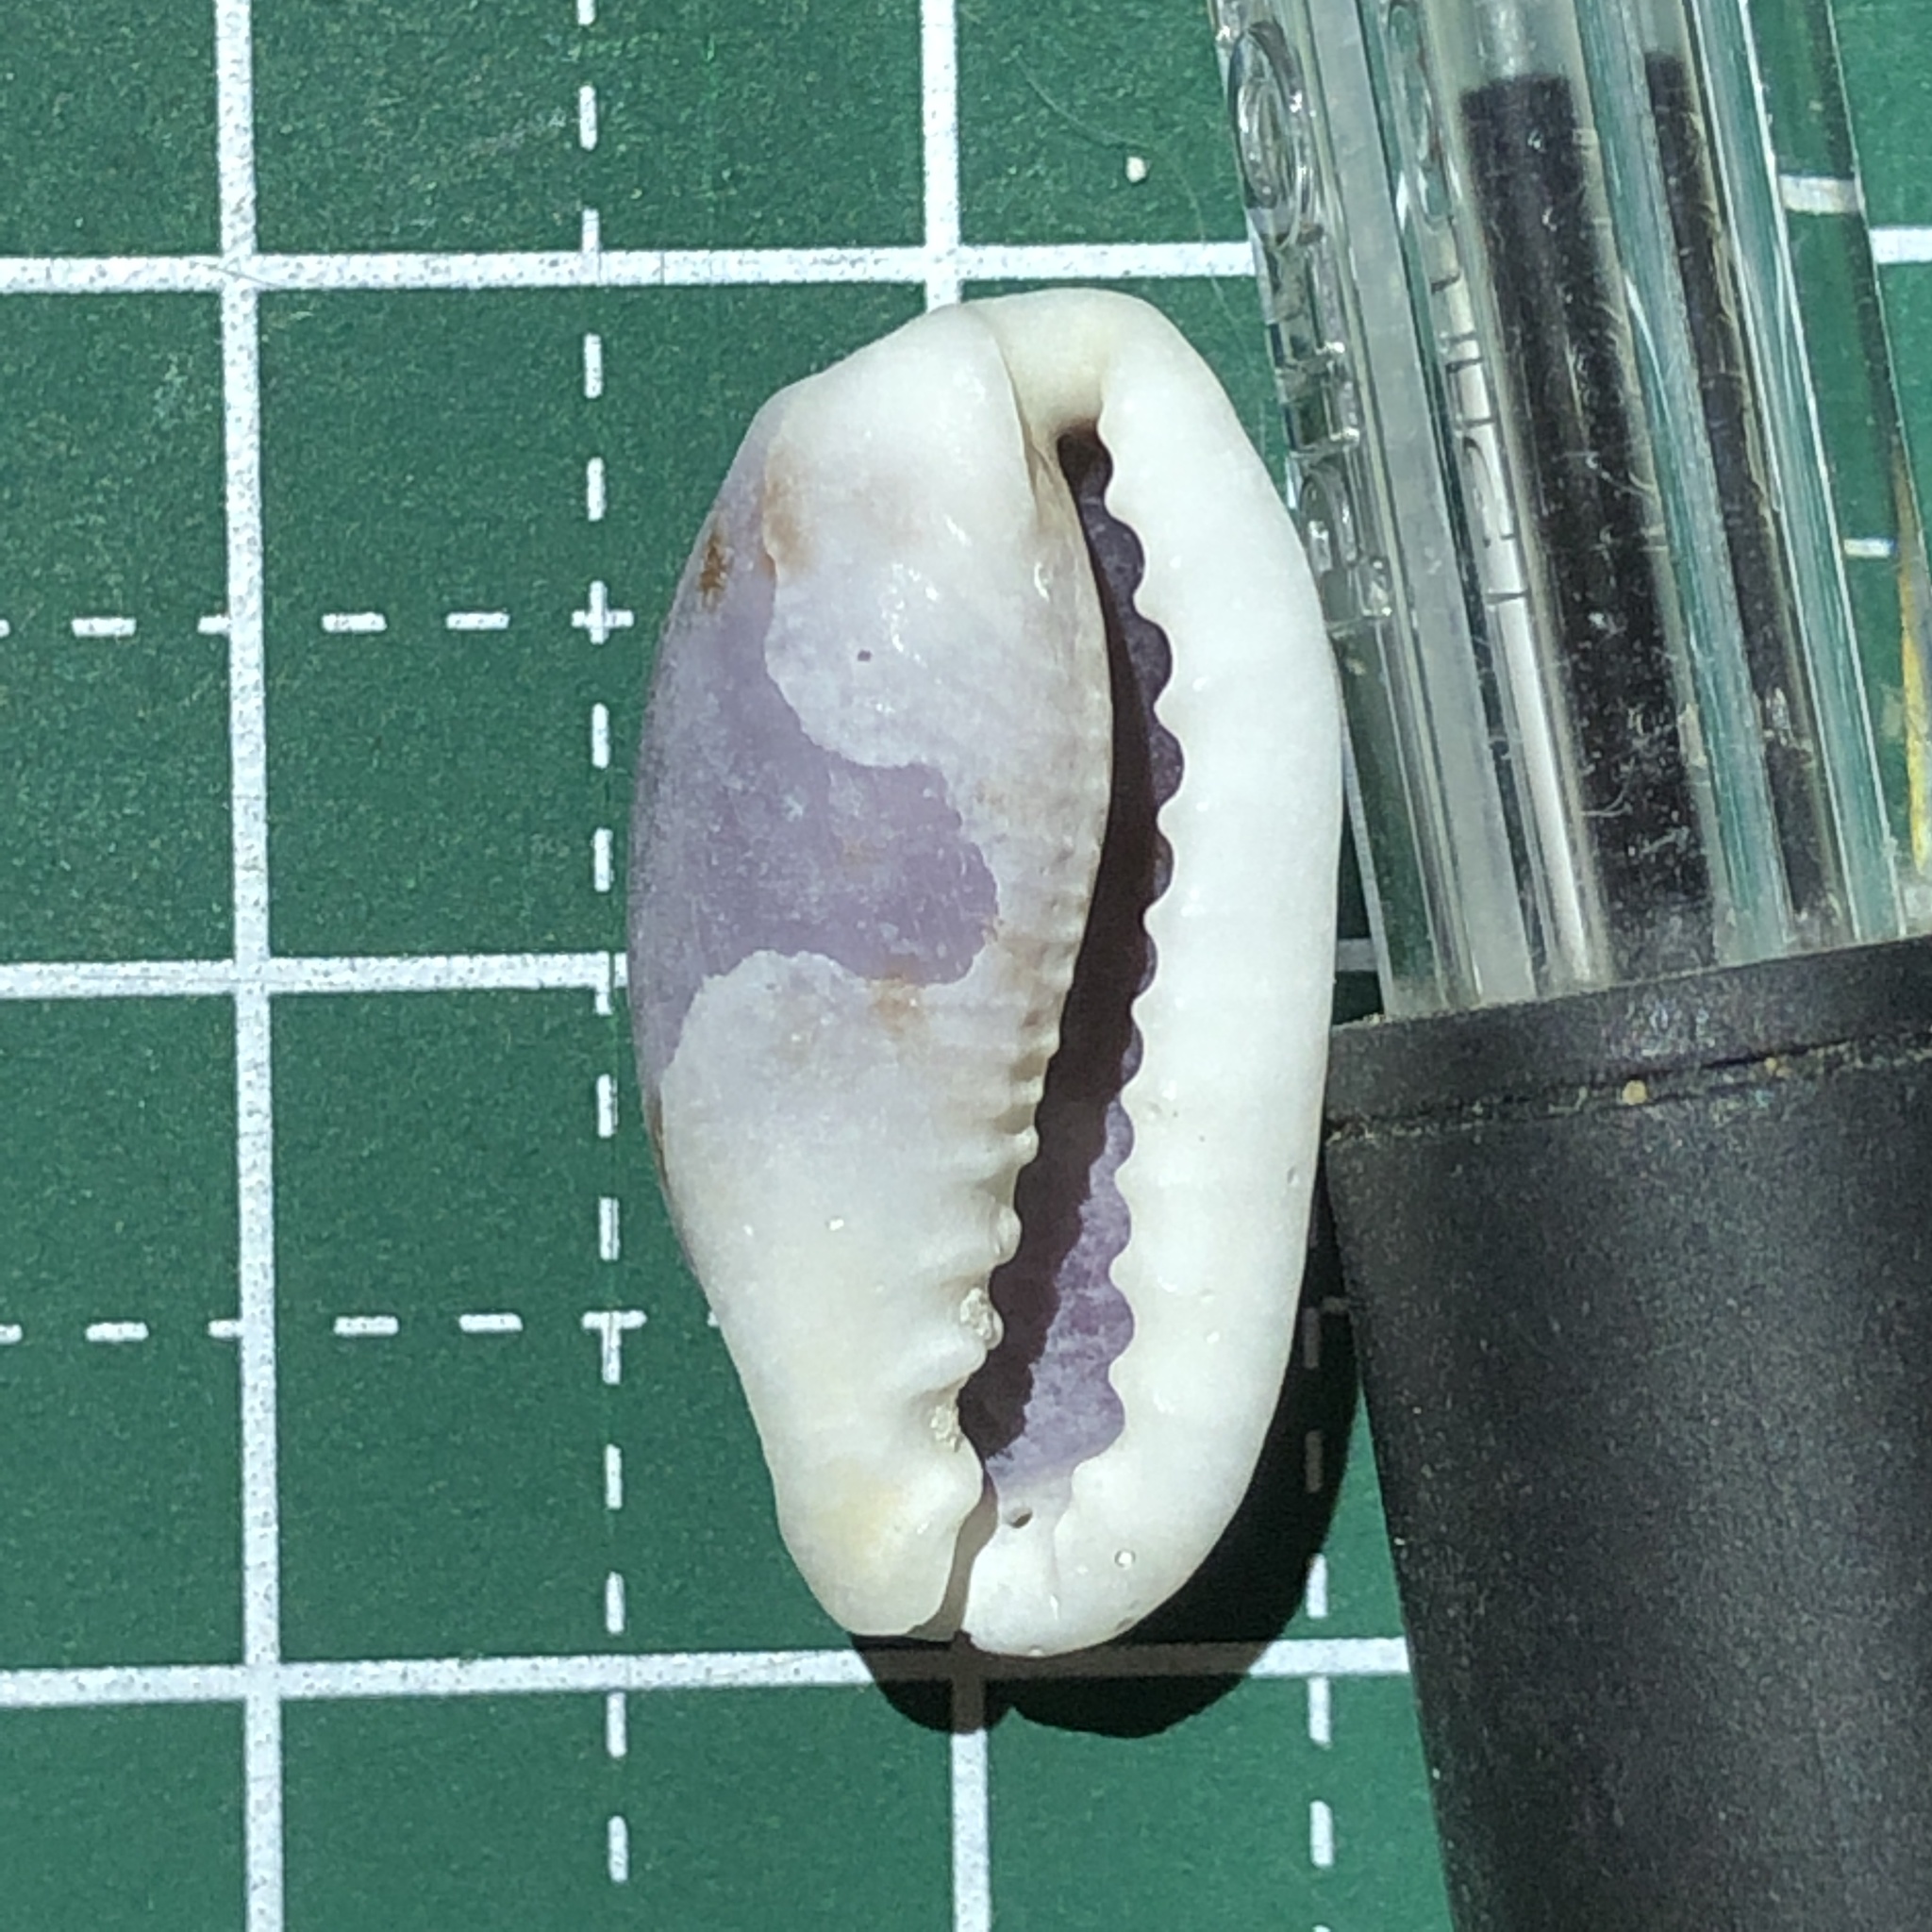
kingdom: Animalia
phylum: Mollusca
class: Gastropoda
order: Littorinimorpha
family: Cypraeidae
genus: Erronea
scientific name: Erronea cylindrica
